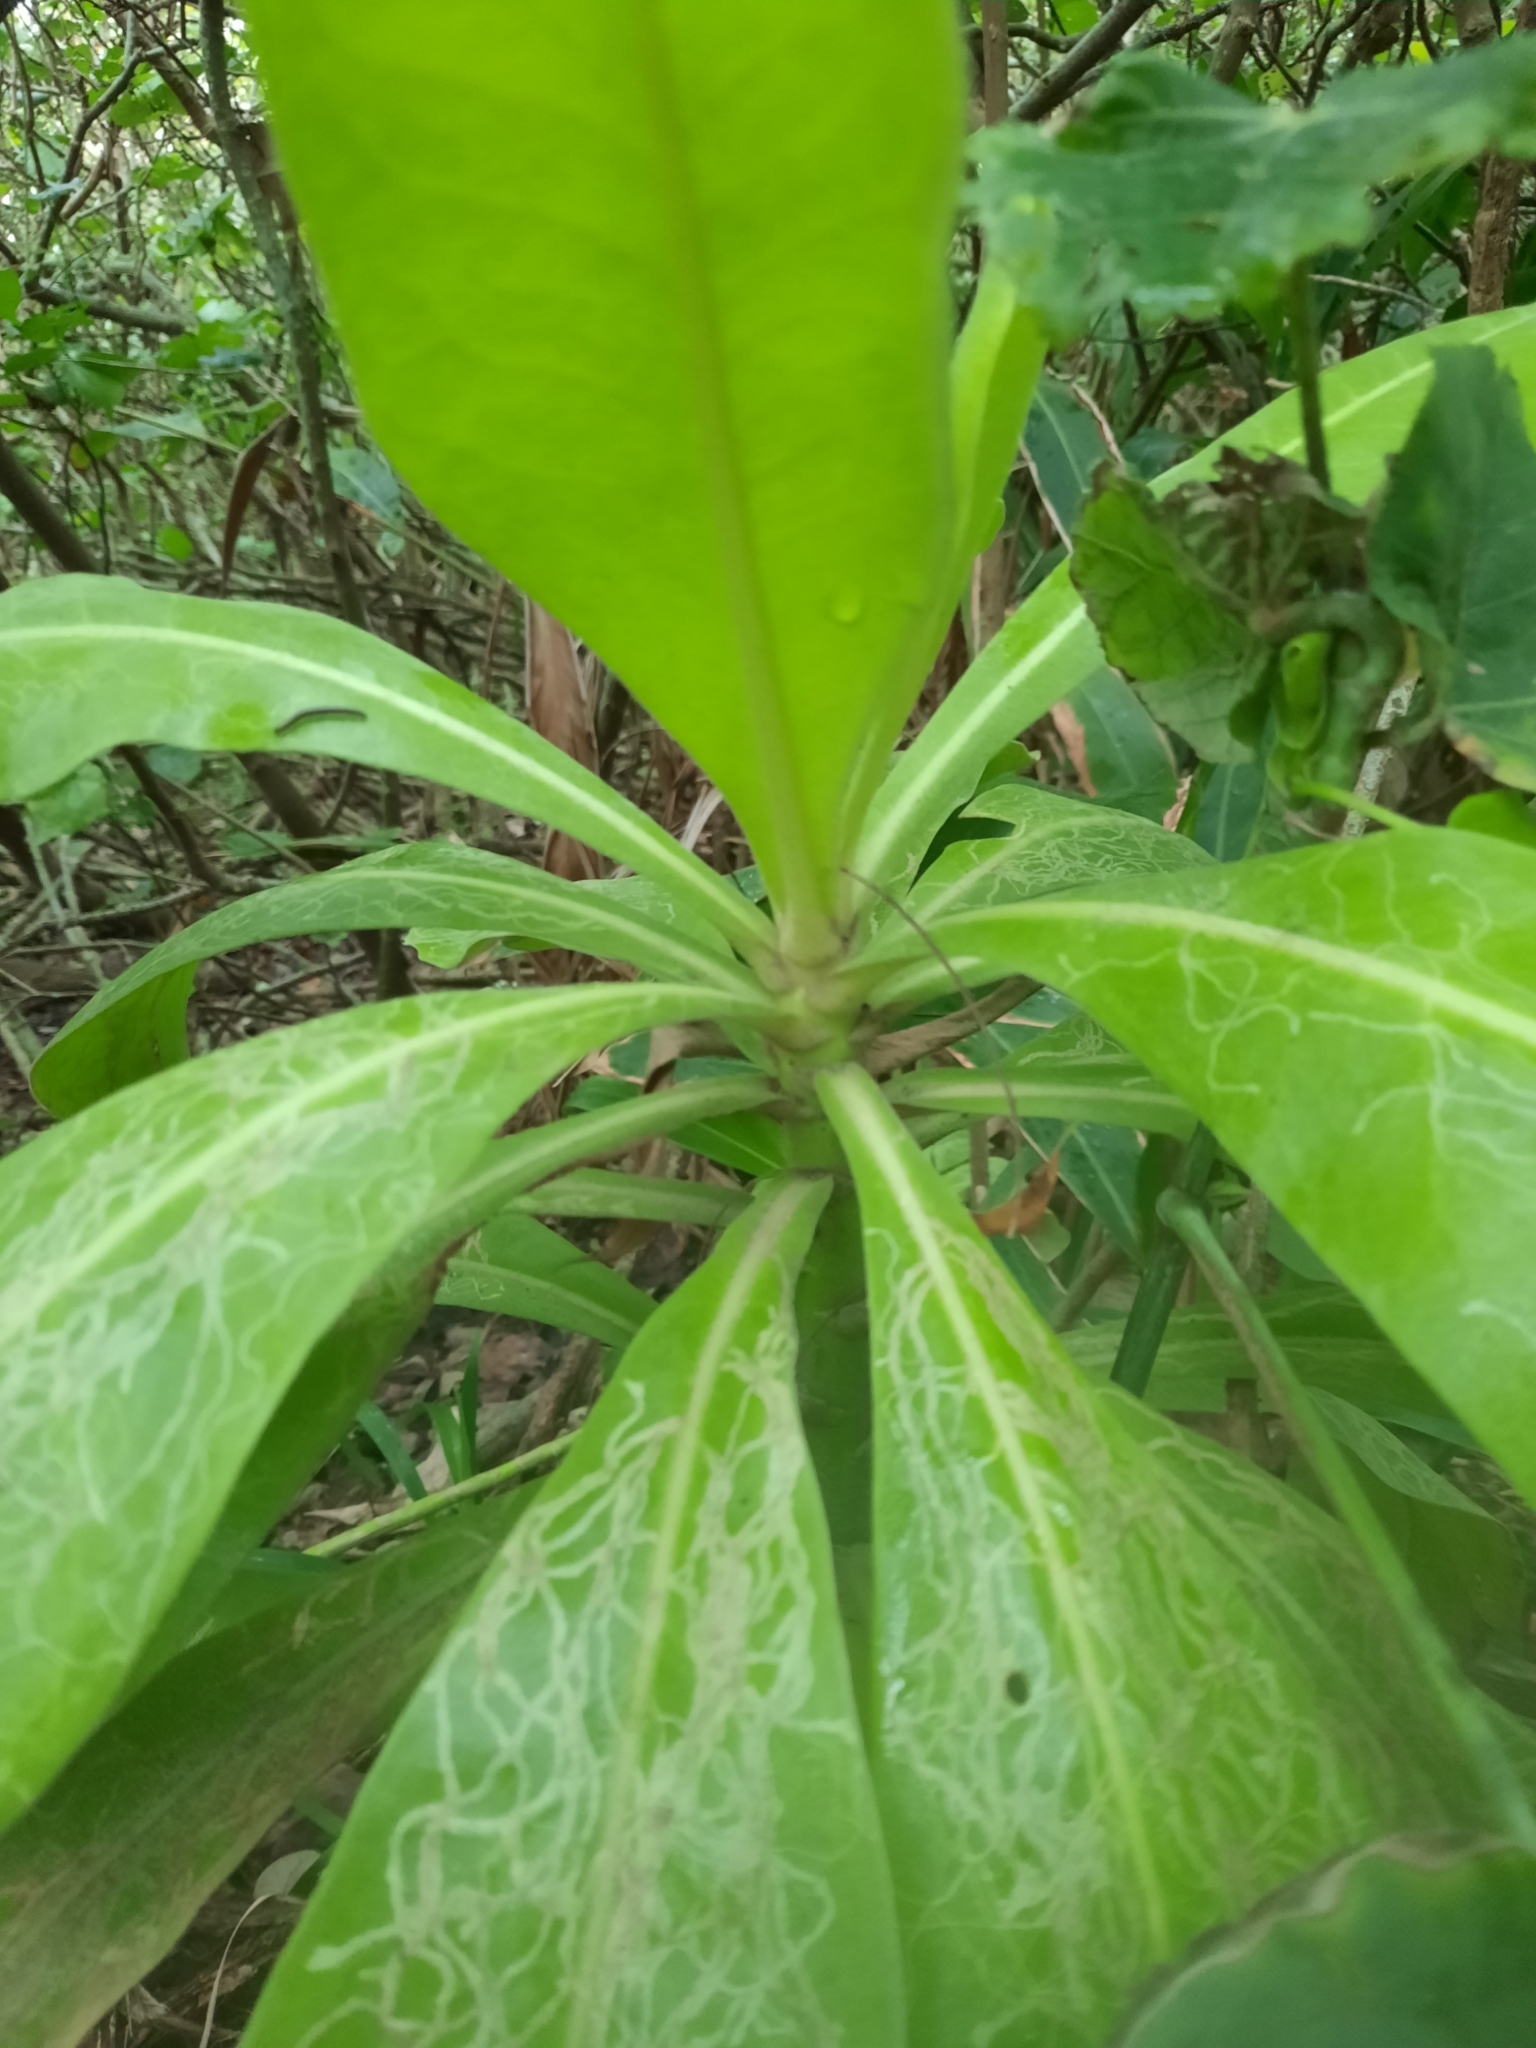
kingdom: Plantae
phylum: Tracheophyta
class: Magnoliopsida
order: Asterales
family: Goodeniaceae
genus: Scaevola
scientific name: Scaevola taccada
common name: Sea lettucetree
